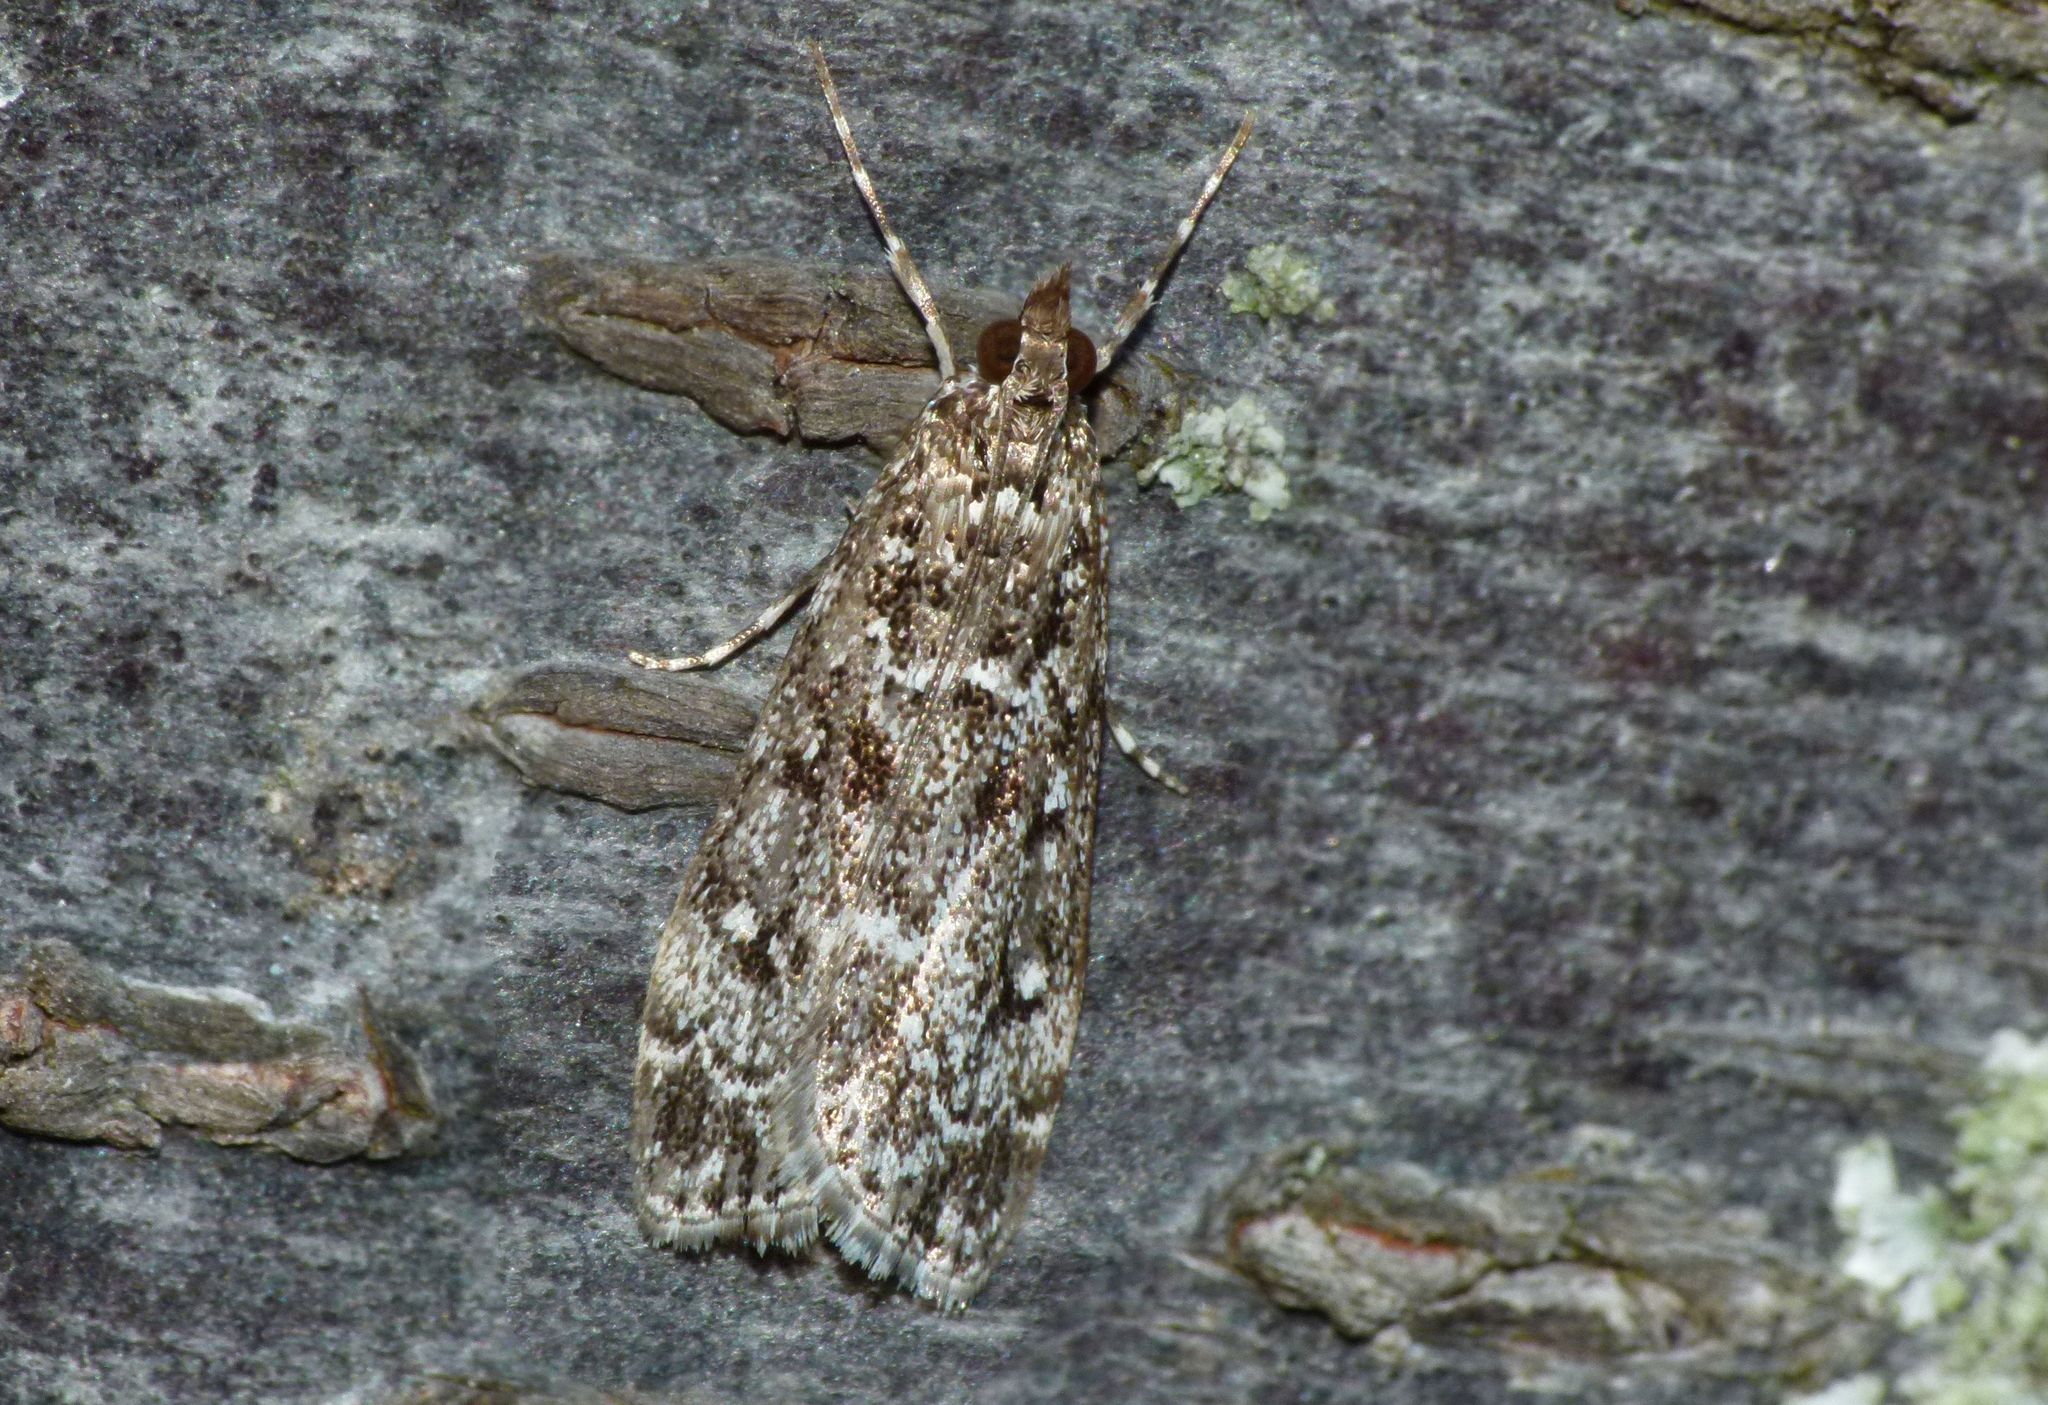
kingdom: Animalia
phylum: Arthropoda
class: Insecta
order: Lepidoptera
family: Crambidae
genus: Eudonia
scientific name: Eudonia philerga
